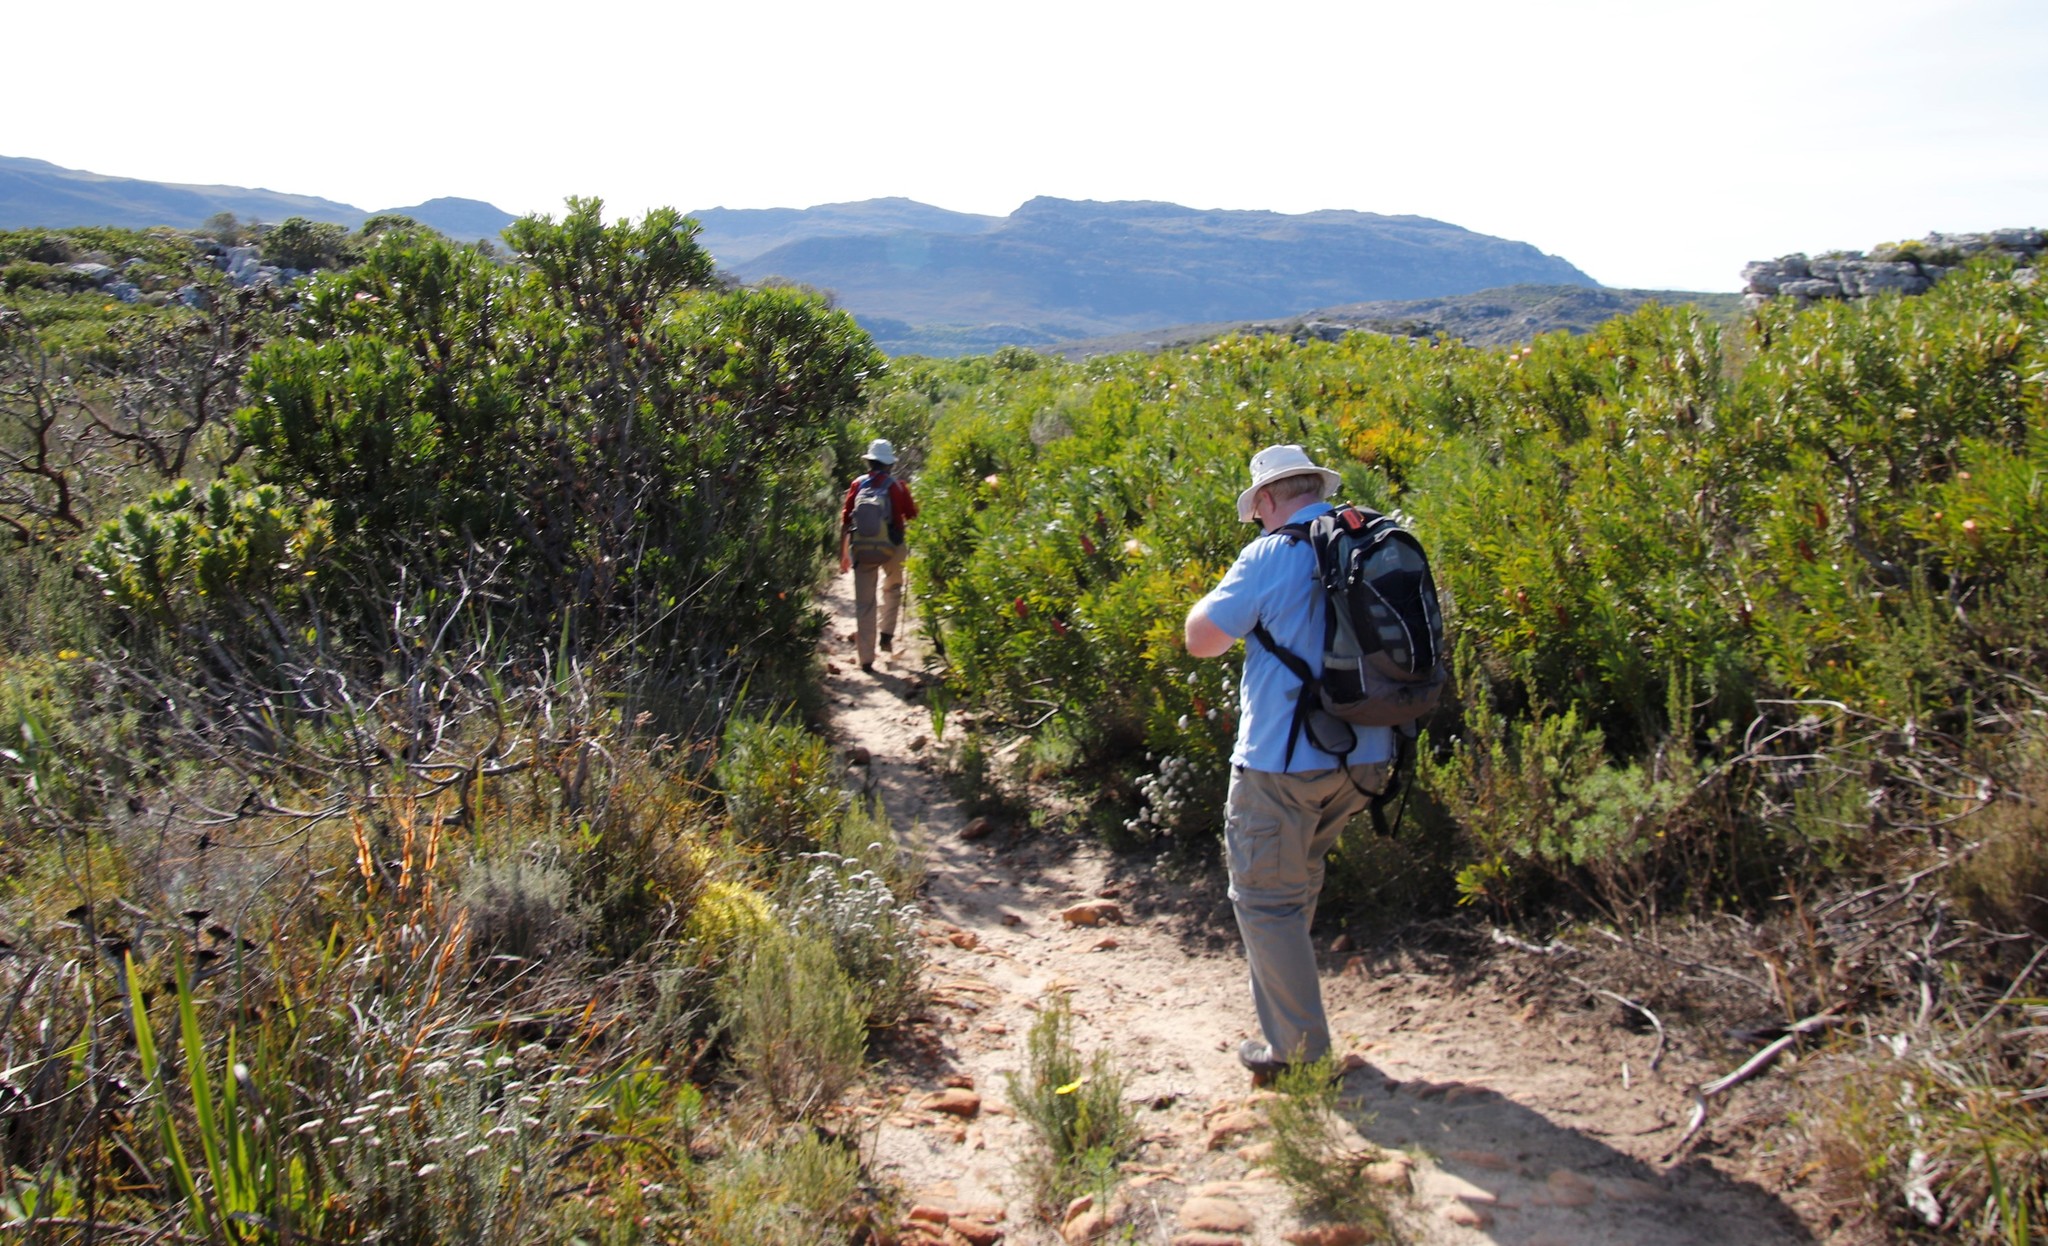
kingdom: Plantae
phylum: Tracheophyta
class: Magnoliopsida
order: Proteales
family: Proteaceae
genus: Protea
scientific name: Protea repens
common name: Sugarbush
